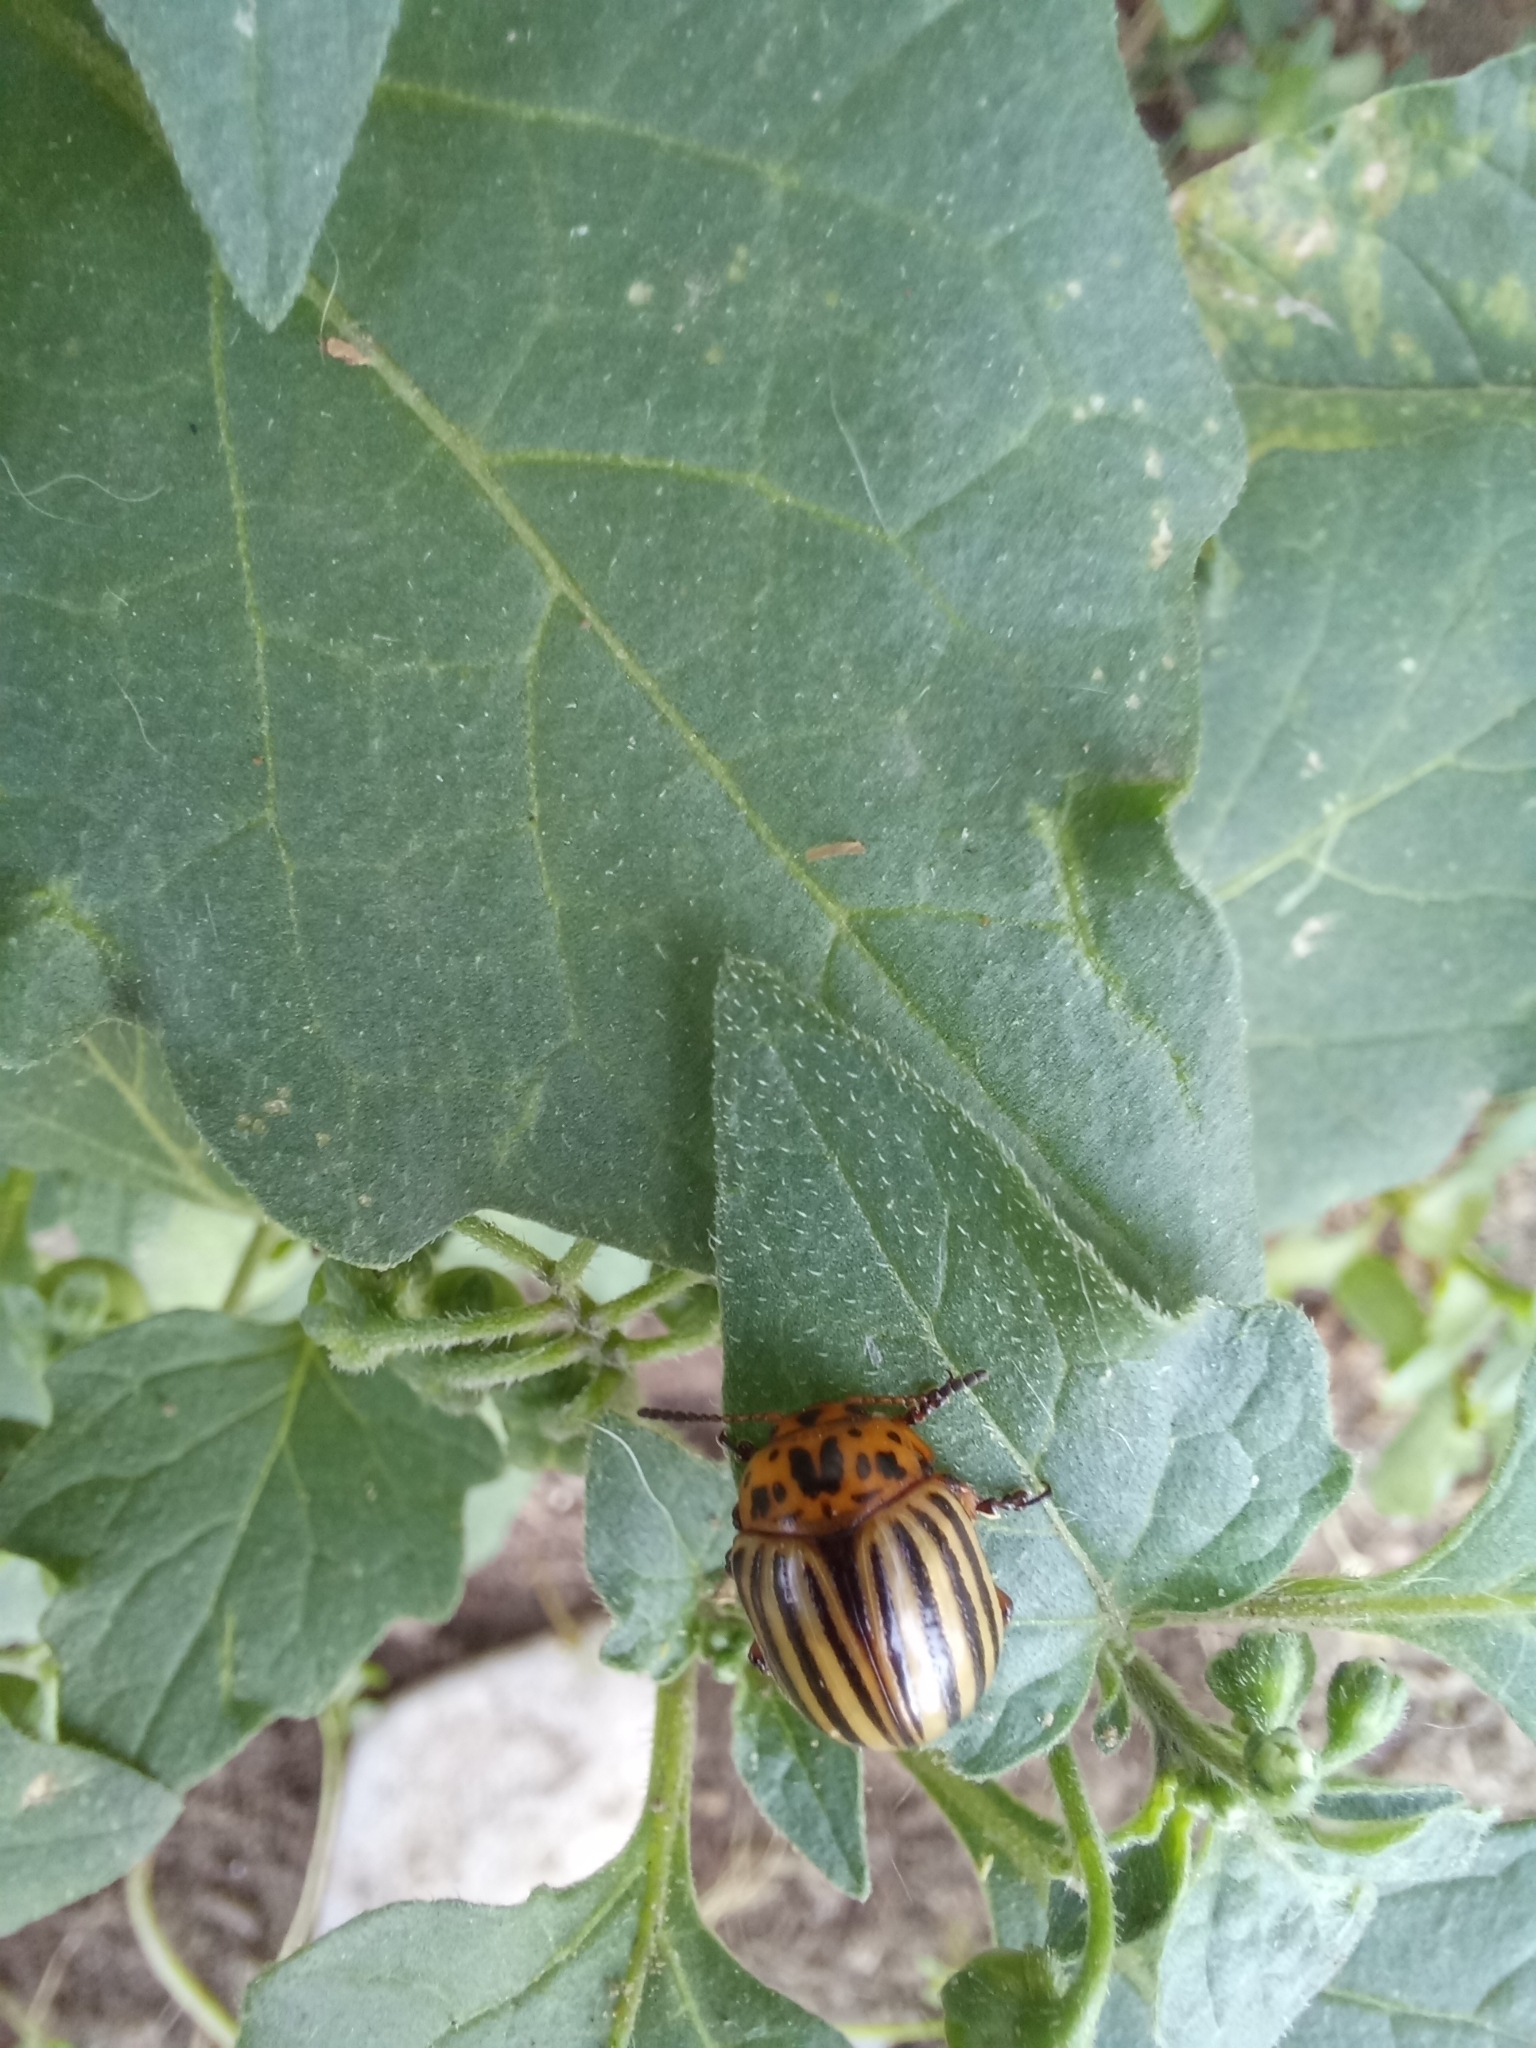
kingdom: Animalia
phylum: Arthropoda
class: Insecta
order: Coleoptera
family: Chrysomelidae
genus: Leptinotarsa
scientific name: Leptinotarsa decemlineata
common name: Colorado potato beetle
